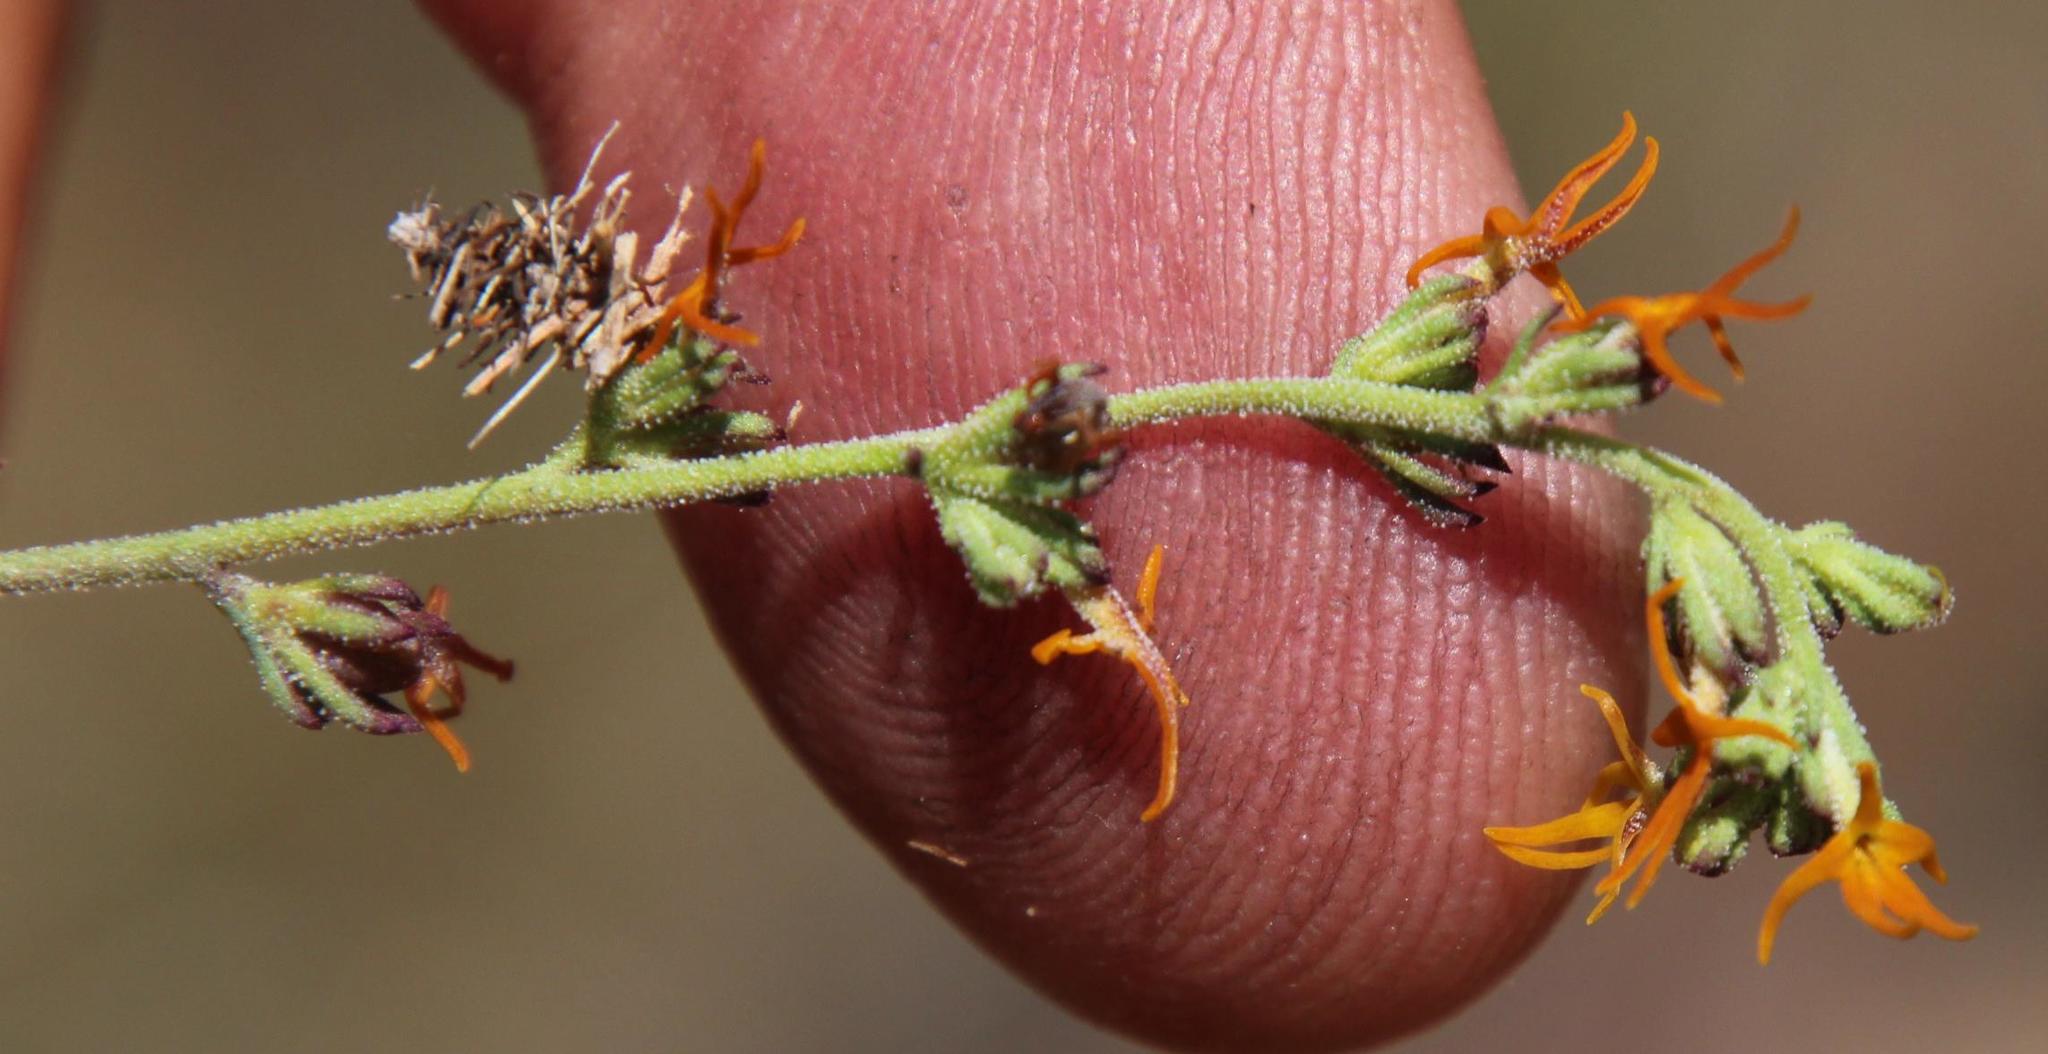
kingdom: Plantae
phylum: Tracheophyta
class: Magnoliopsida
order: Lamiales
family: Scrophulariaceae
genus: Manulea
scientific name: Manulea cheiranthus
